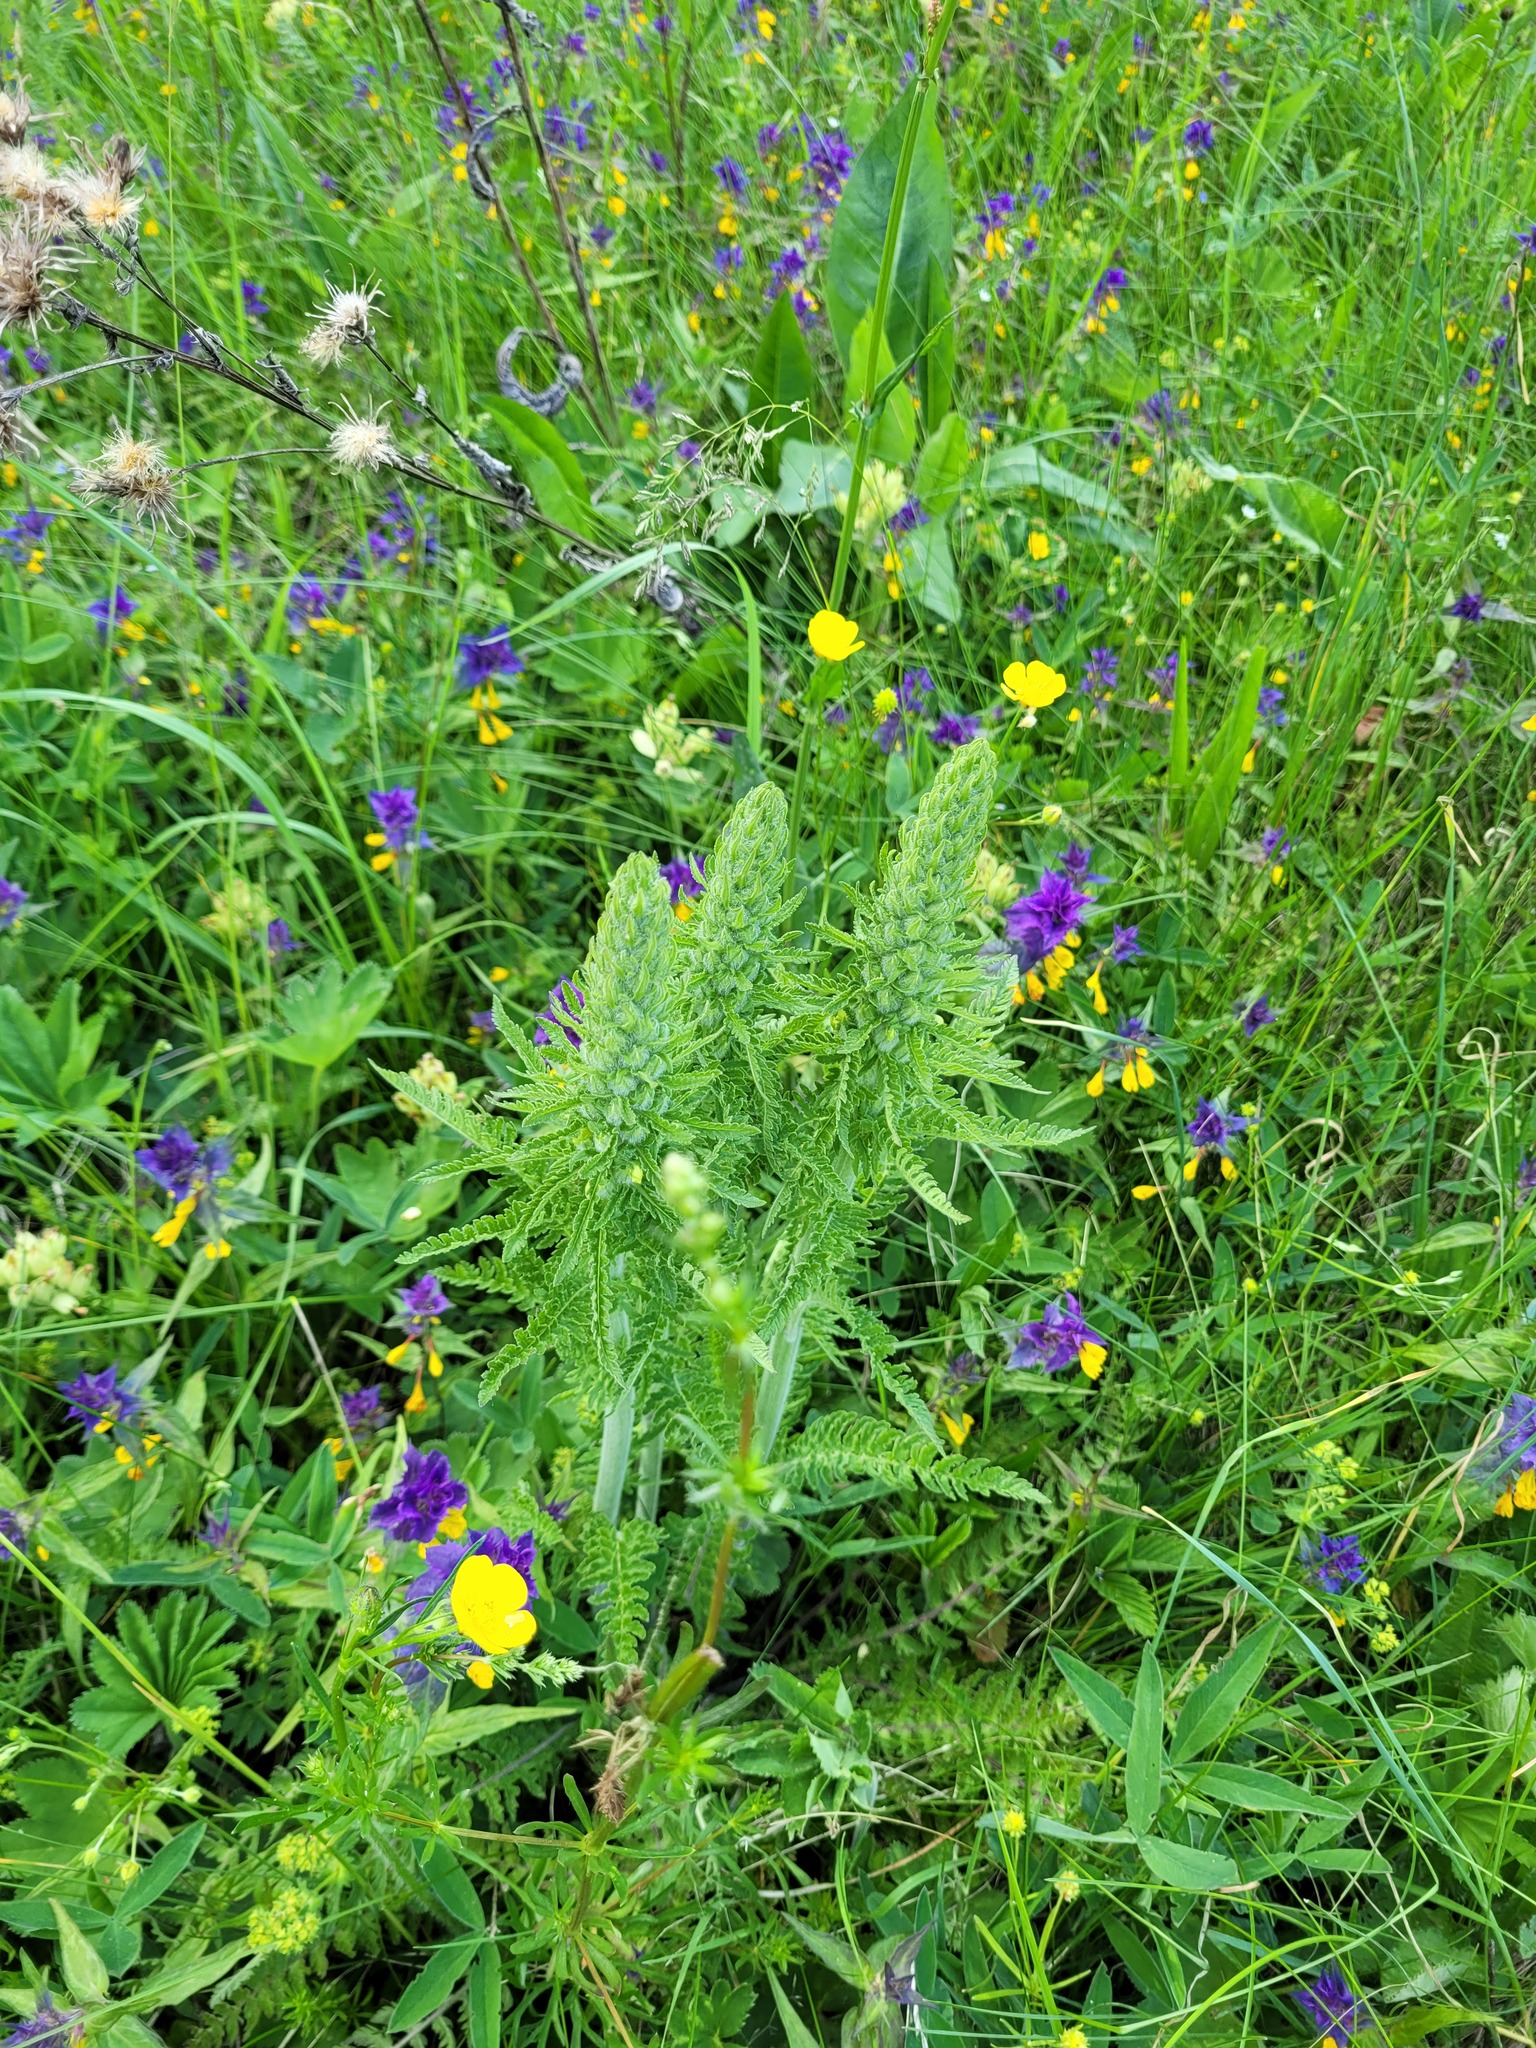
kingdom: Plantae
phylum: Tracheophyta
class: Magnoliopsida
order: Lamiales
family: Orobanchaceae
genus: Pedicularis
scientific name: Pedicularis kaufmannii
